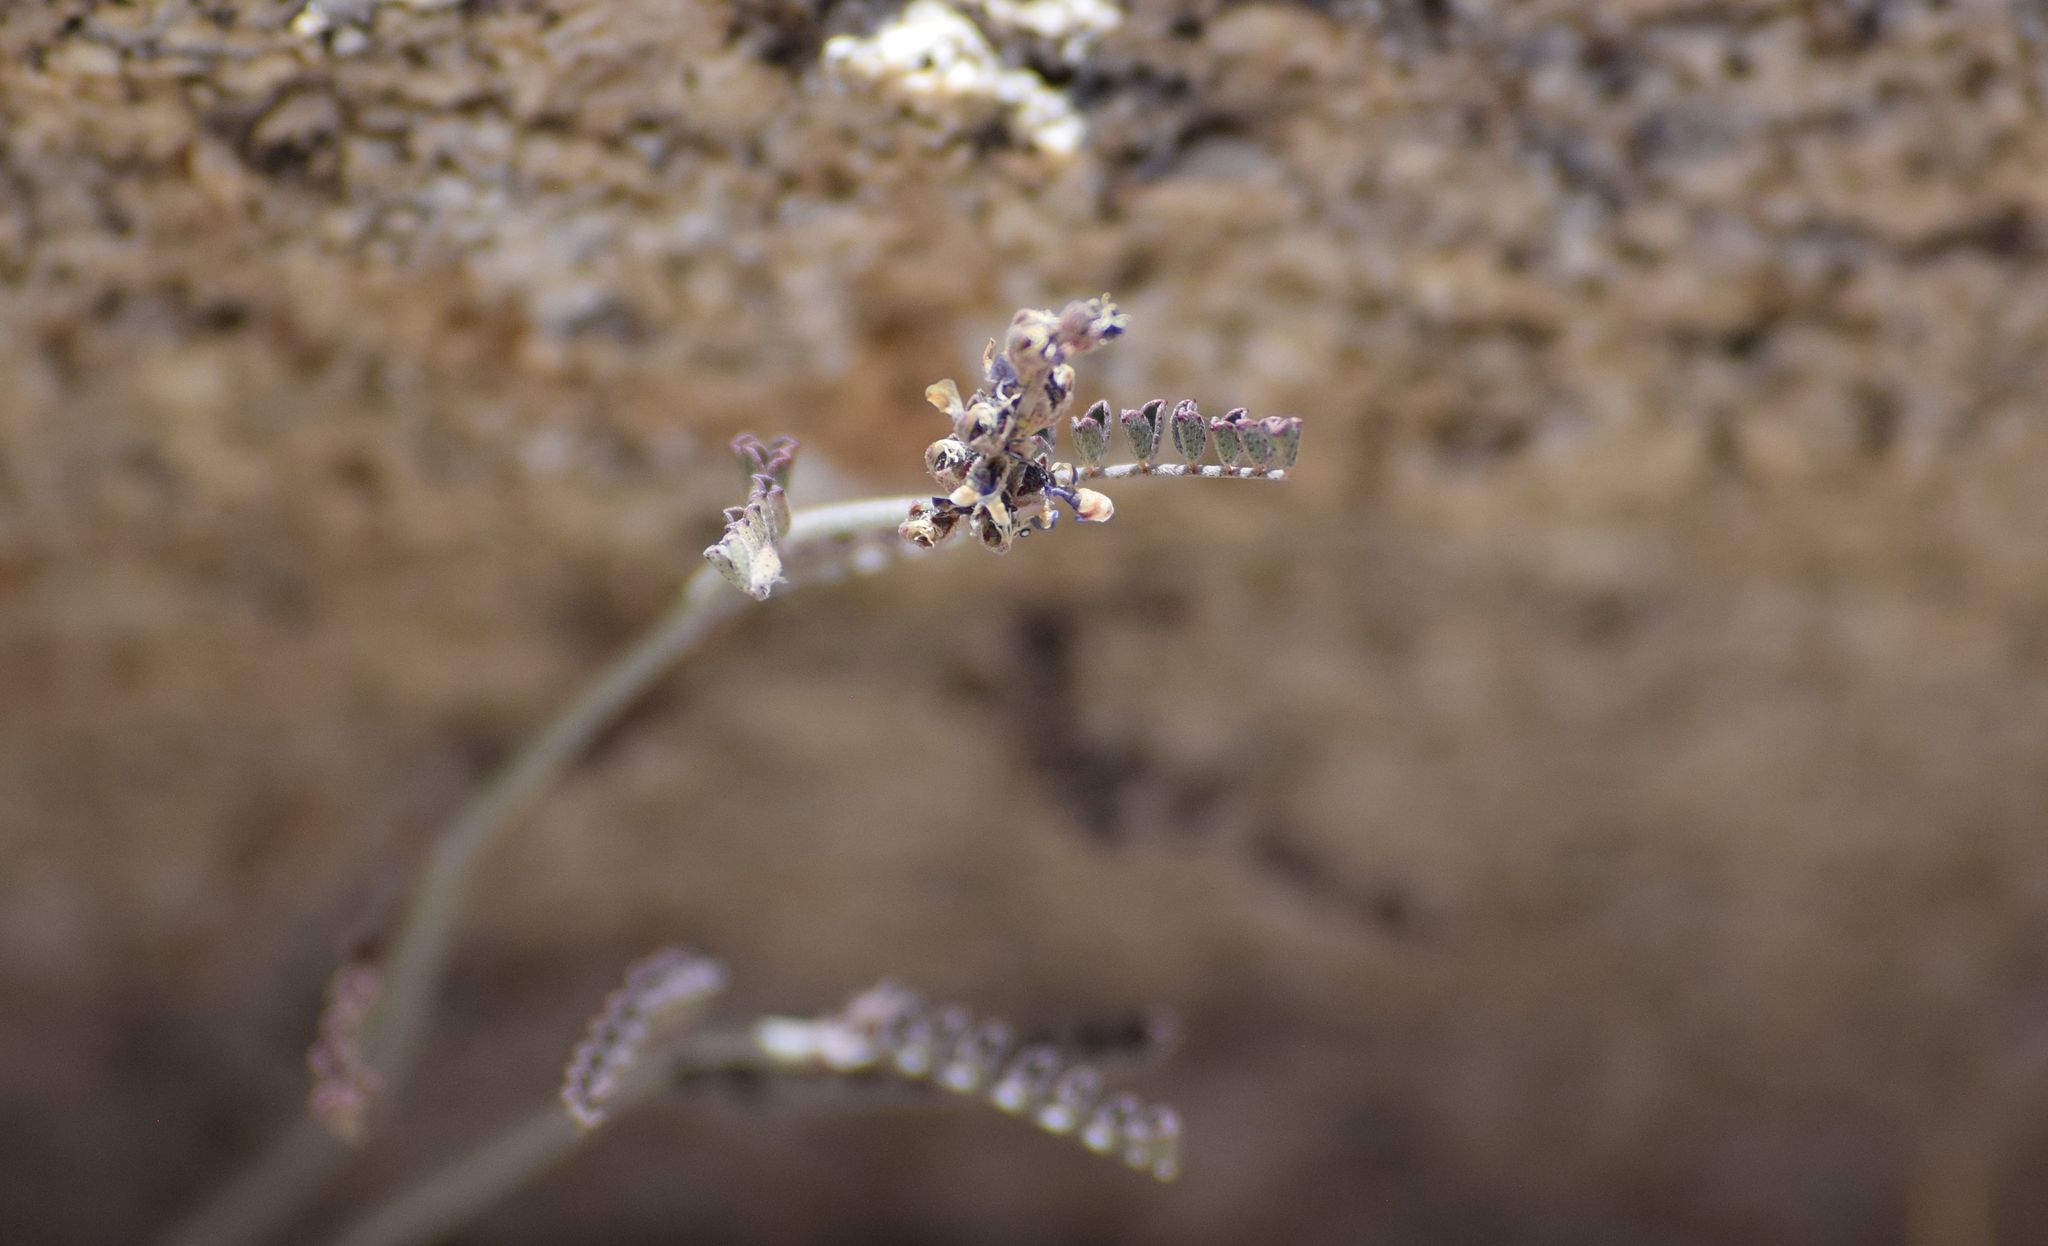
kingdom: Plantae
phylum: Tracheophyta
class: Magnoliopsida
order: Fabales
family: Fabaceae
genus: Marina
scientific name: Marina parryi
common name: Parry's marina
